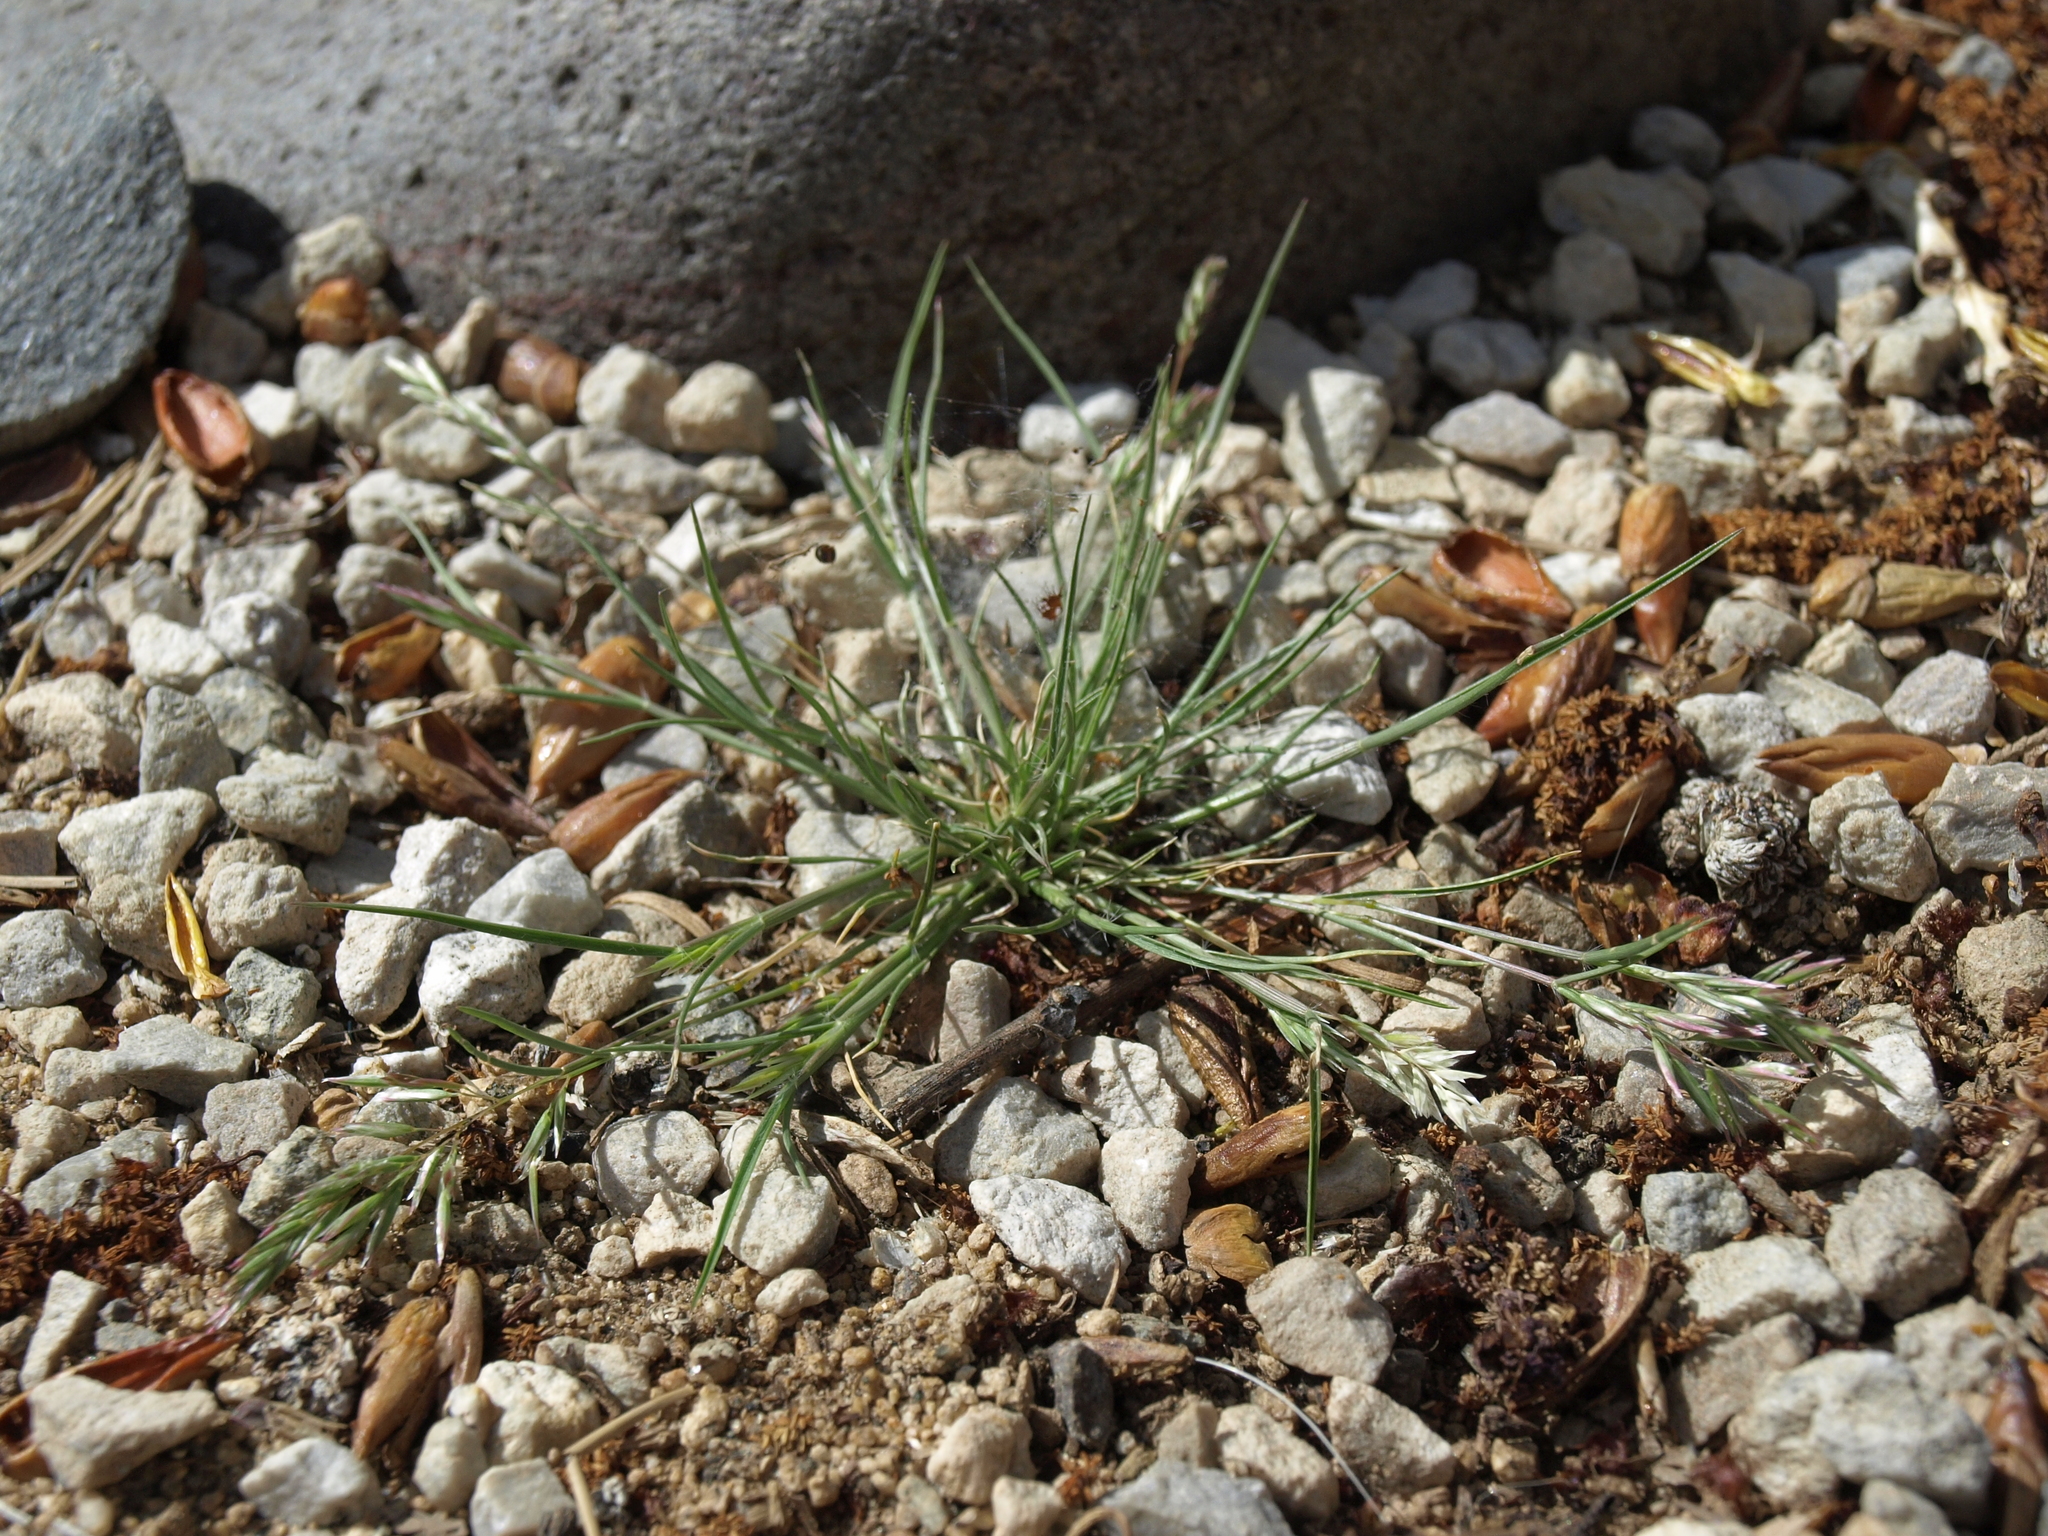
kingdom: Plantae
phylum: Tracheophyta
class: Liliopsida
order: Poales
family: Poaceae
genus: Schismus
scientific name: Schismus barbatus
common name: Kelch-grass
